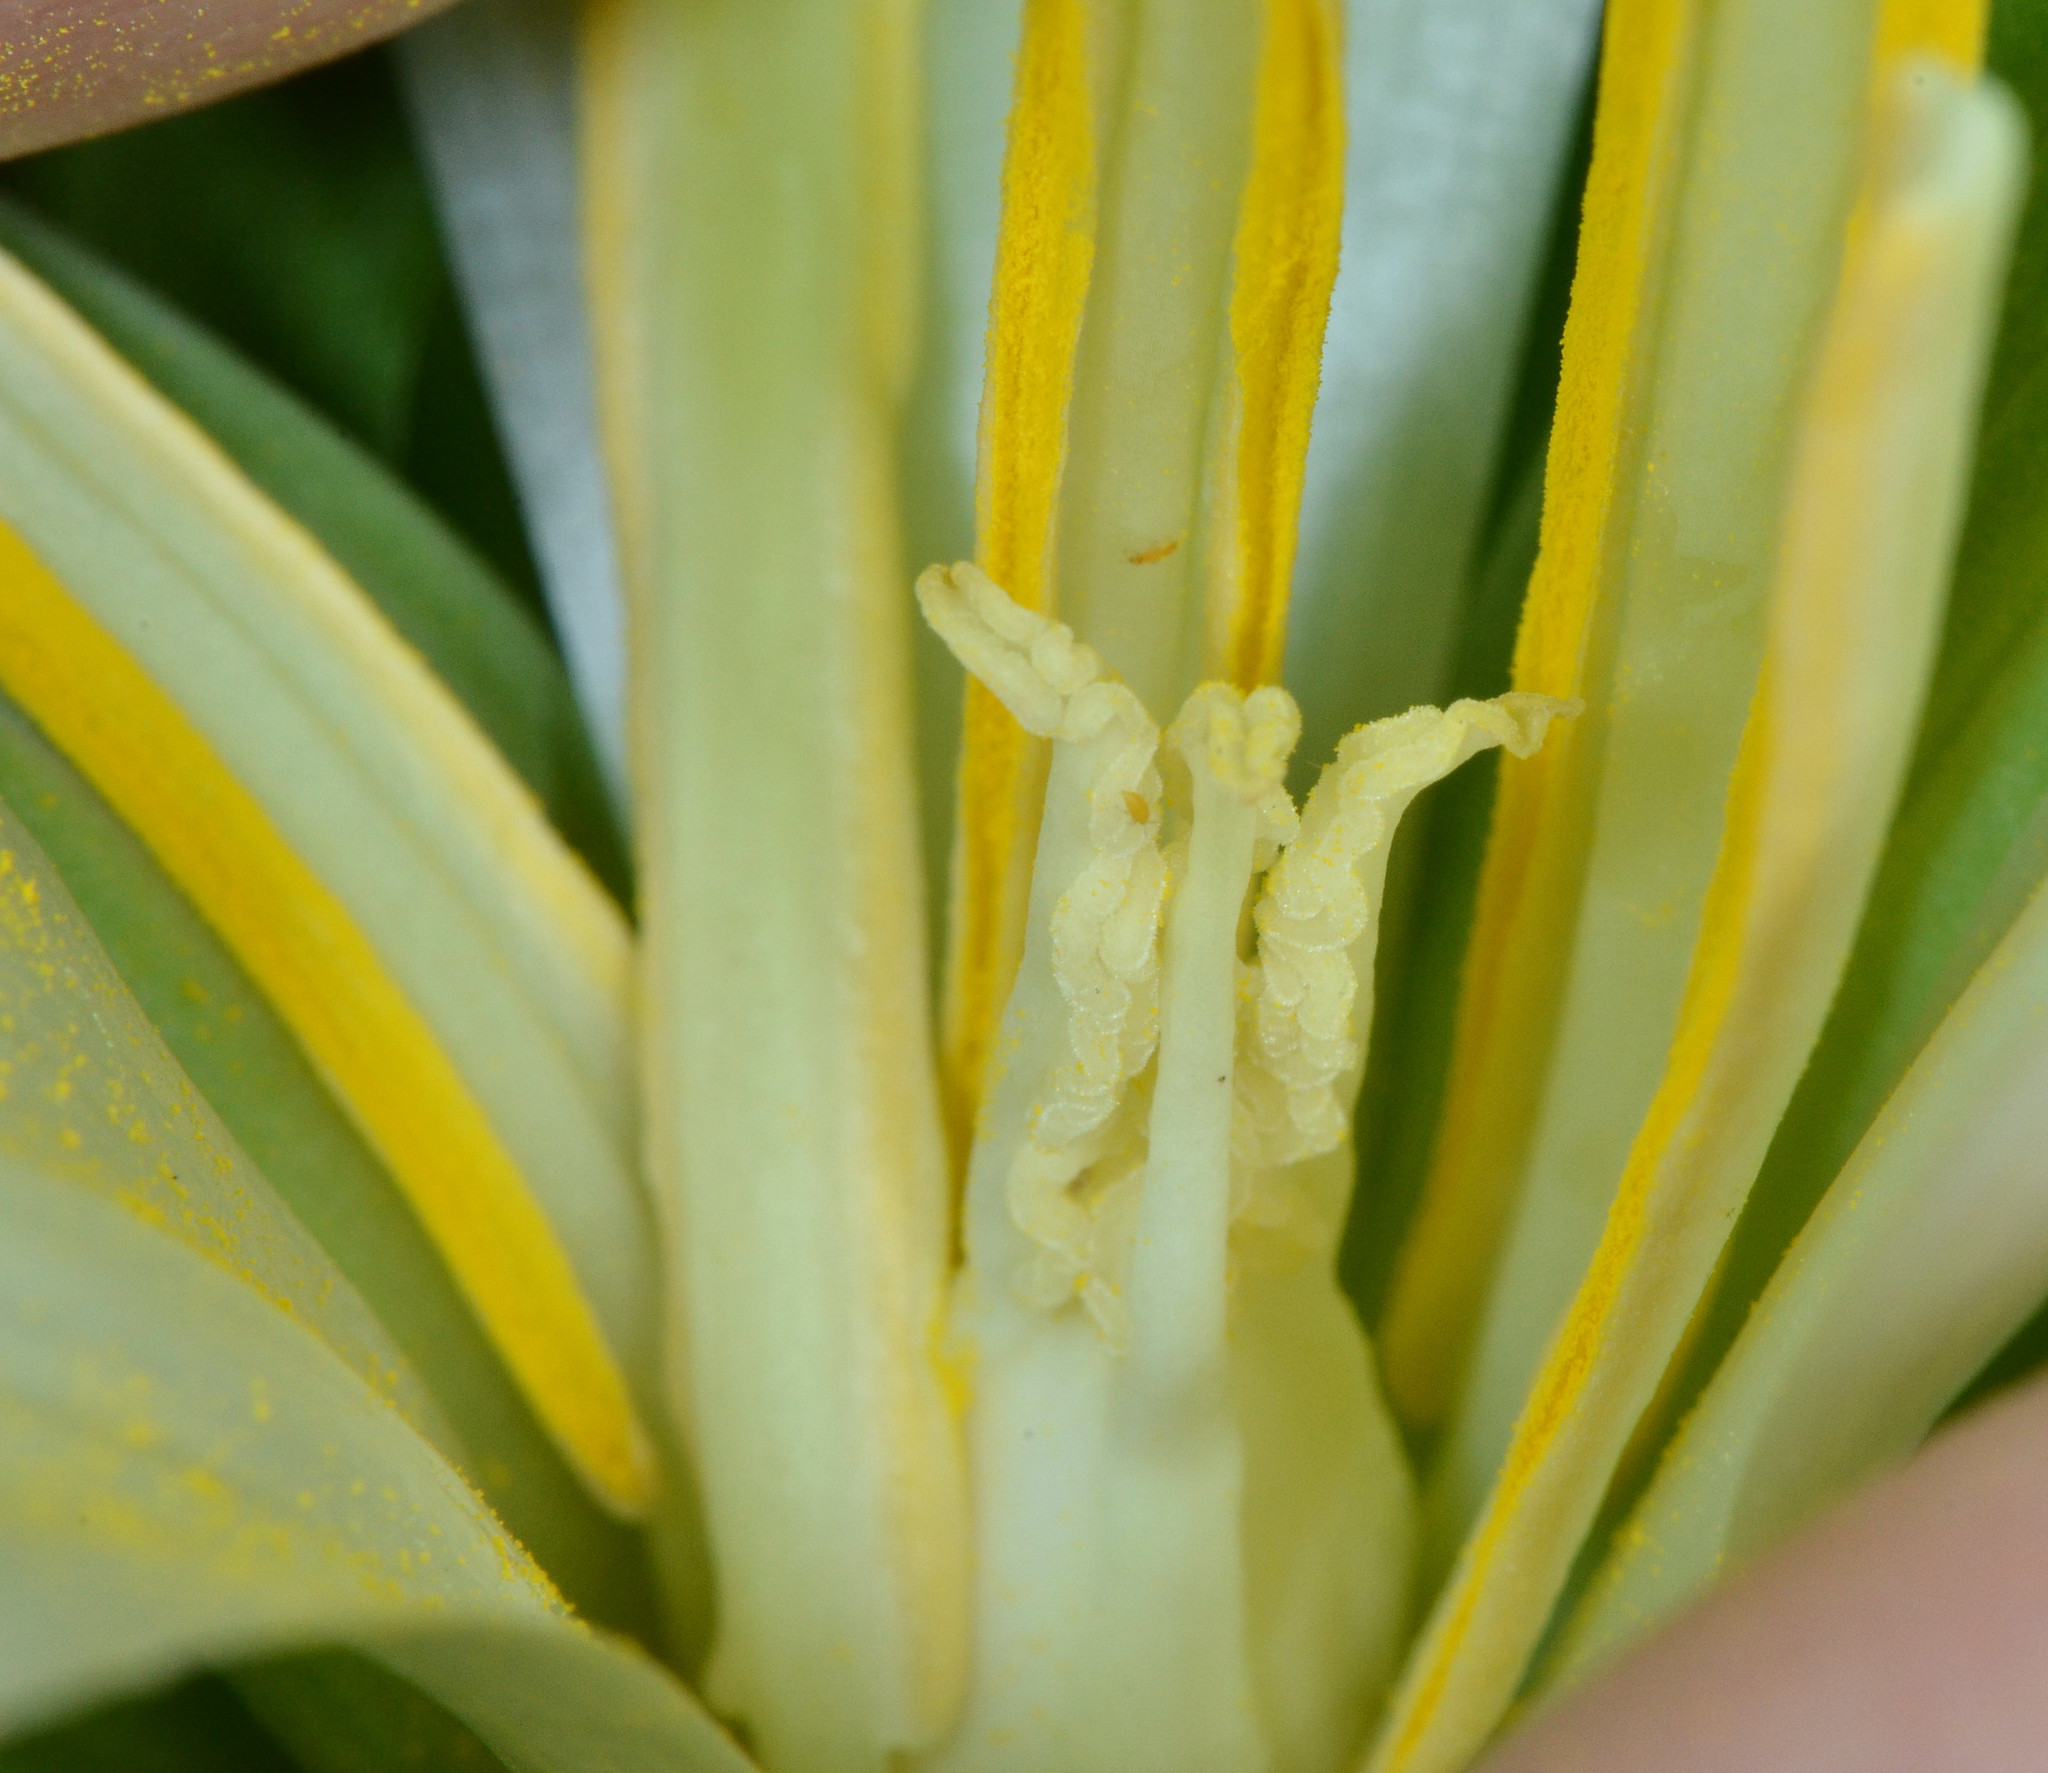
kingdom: Plantae
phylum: Tracheophyta
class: Liliopsida
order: Liliales
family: Melanthiaceae
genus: Trillium
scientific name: Trillium albidum
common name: Freeman's trillium
